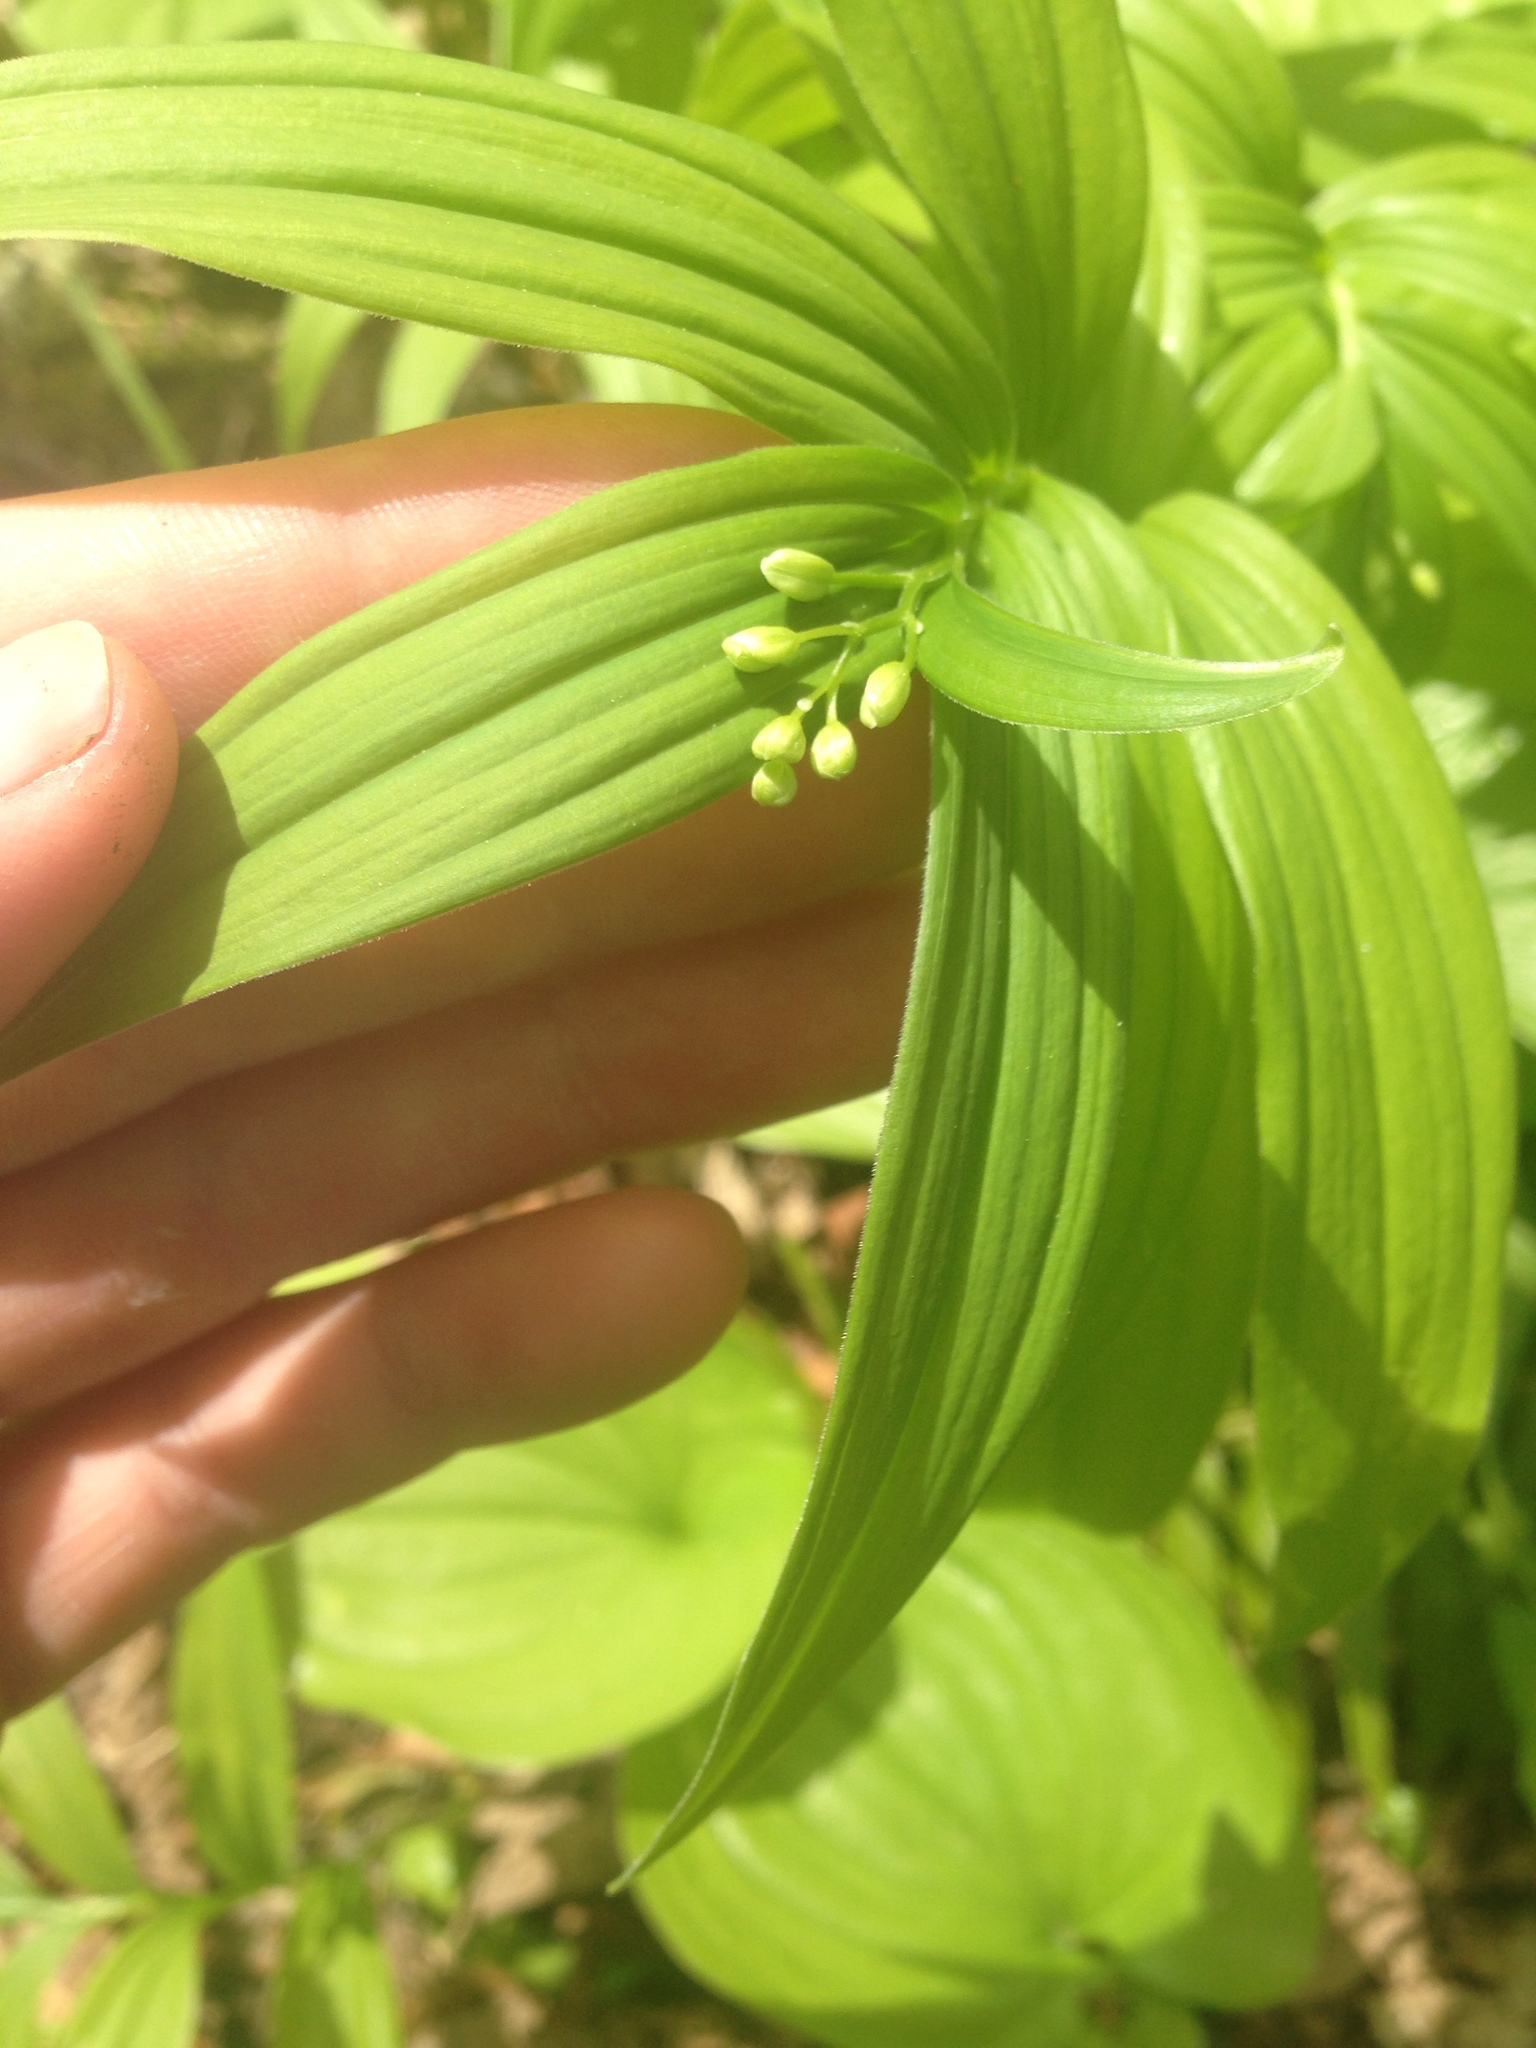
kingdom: Plantae
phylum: Tracheophyta
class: Liliopsida
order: Asparagales
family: Asparagaceae
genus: Maianthemum
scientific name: Maianthemum stellatum
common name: Little false solomon's seal
